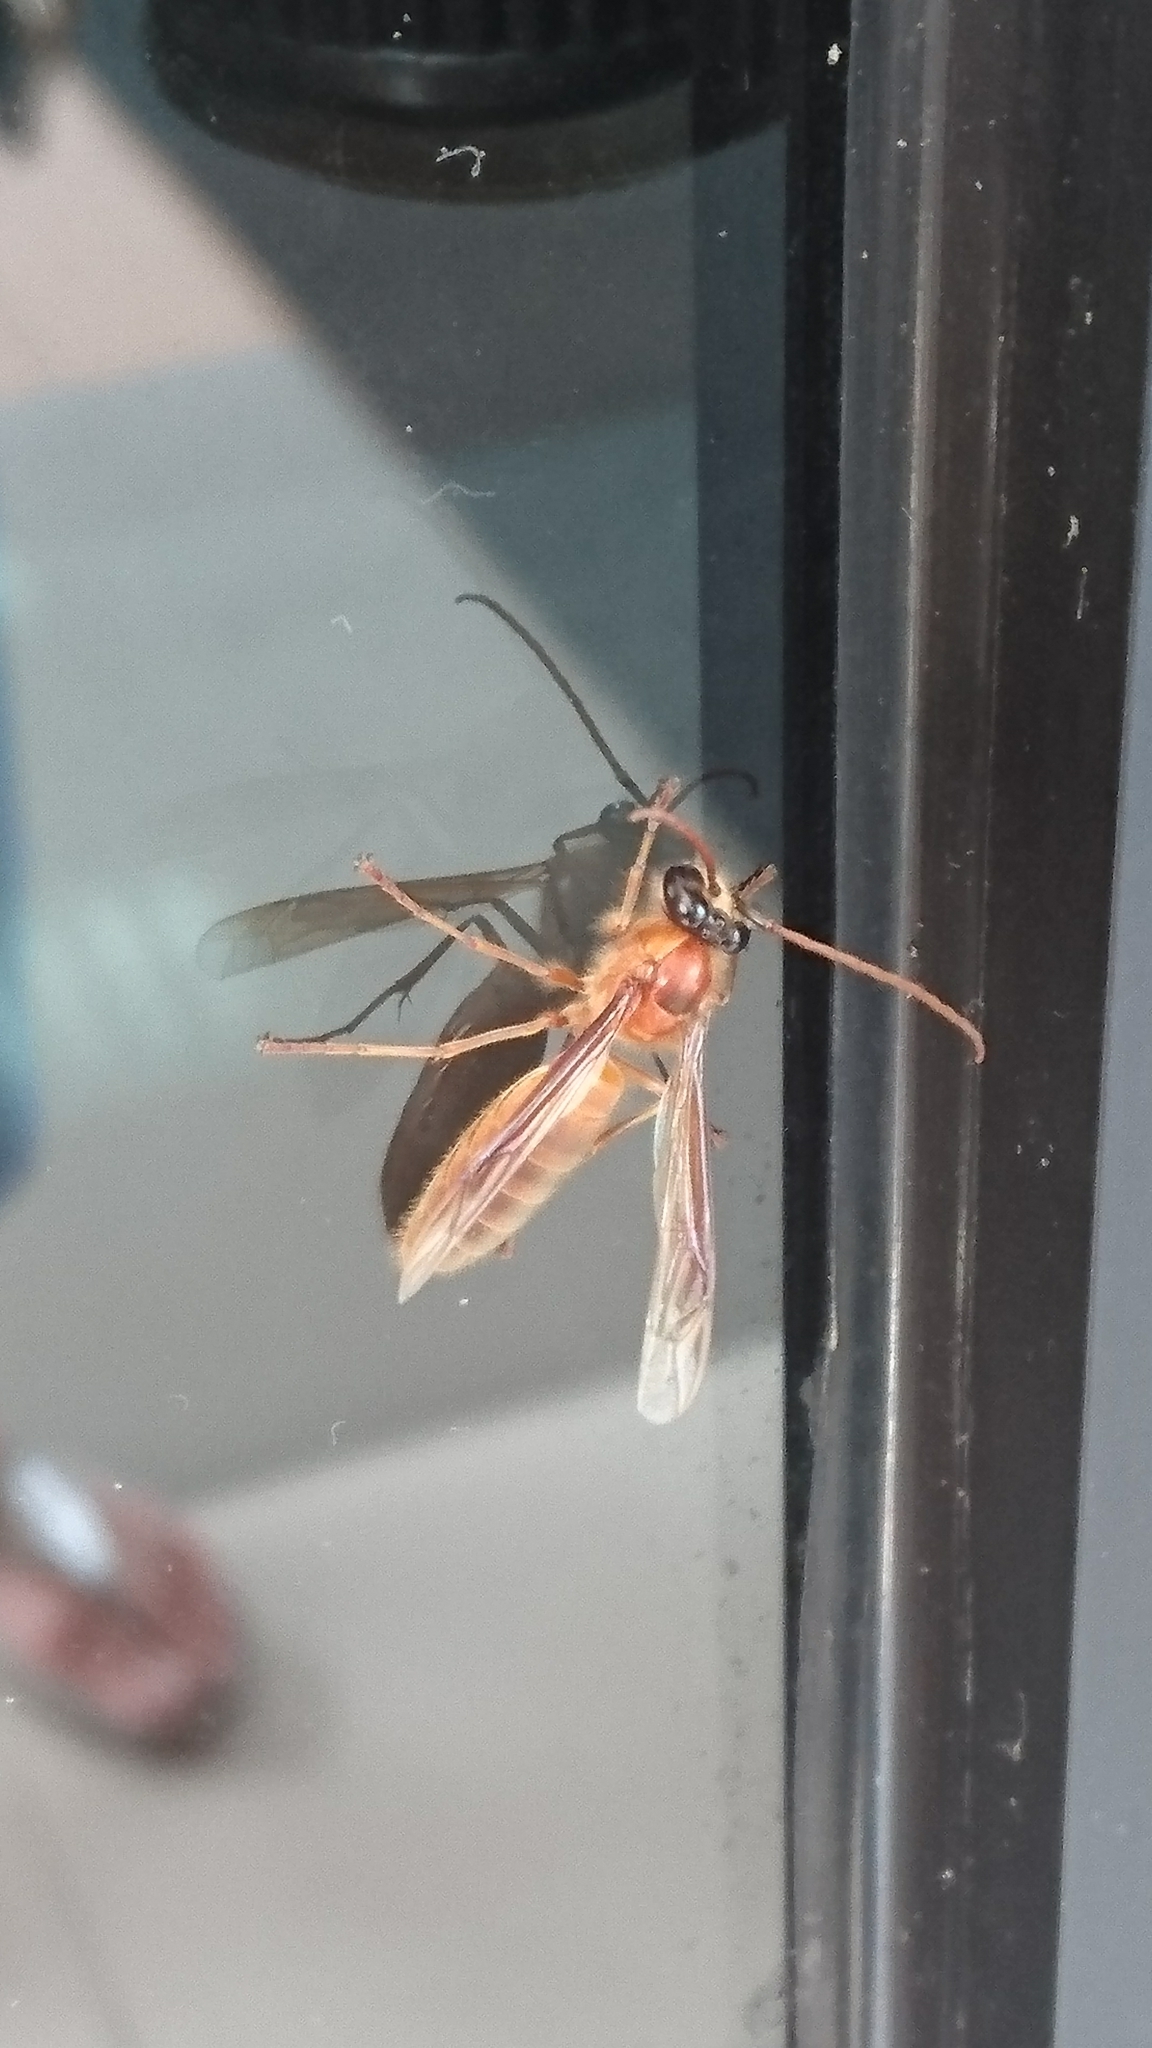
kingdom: Animalia
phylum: Arthropoda
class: Insecta
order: Hymenoptera
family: Vespidae
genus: Provespa
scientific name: Provespa
